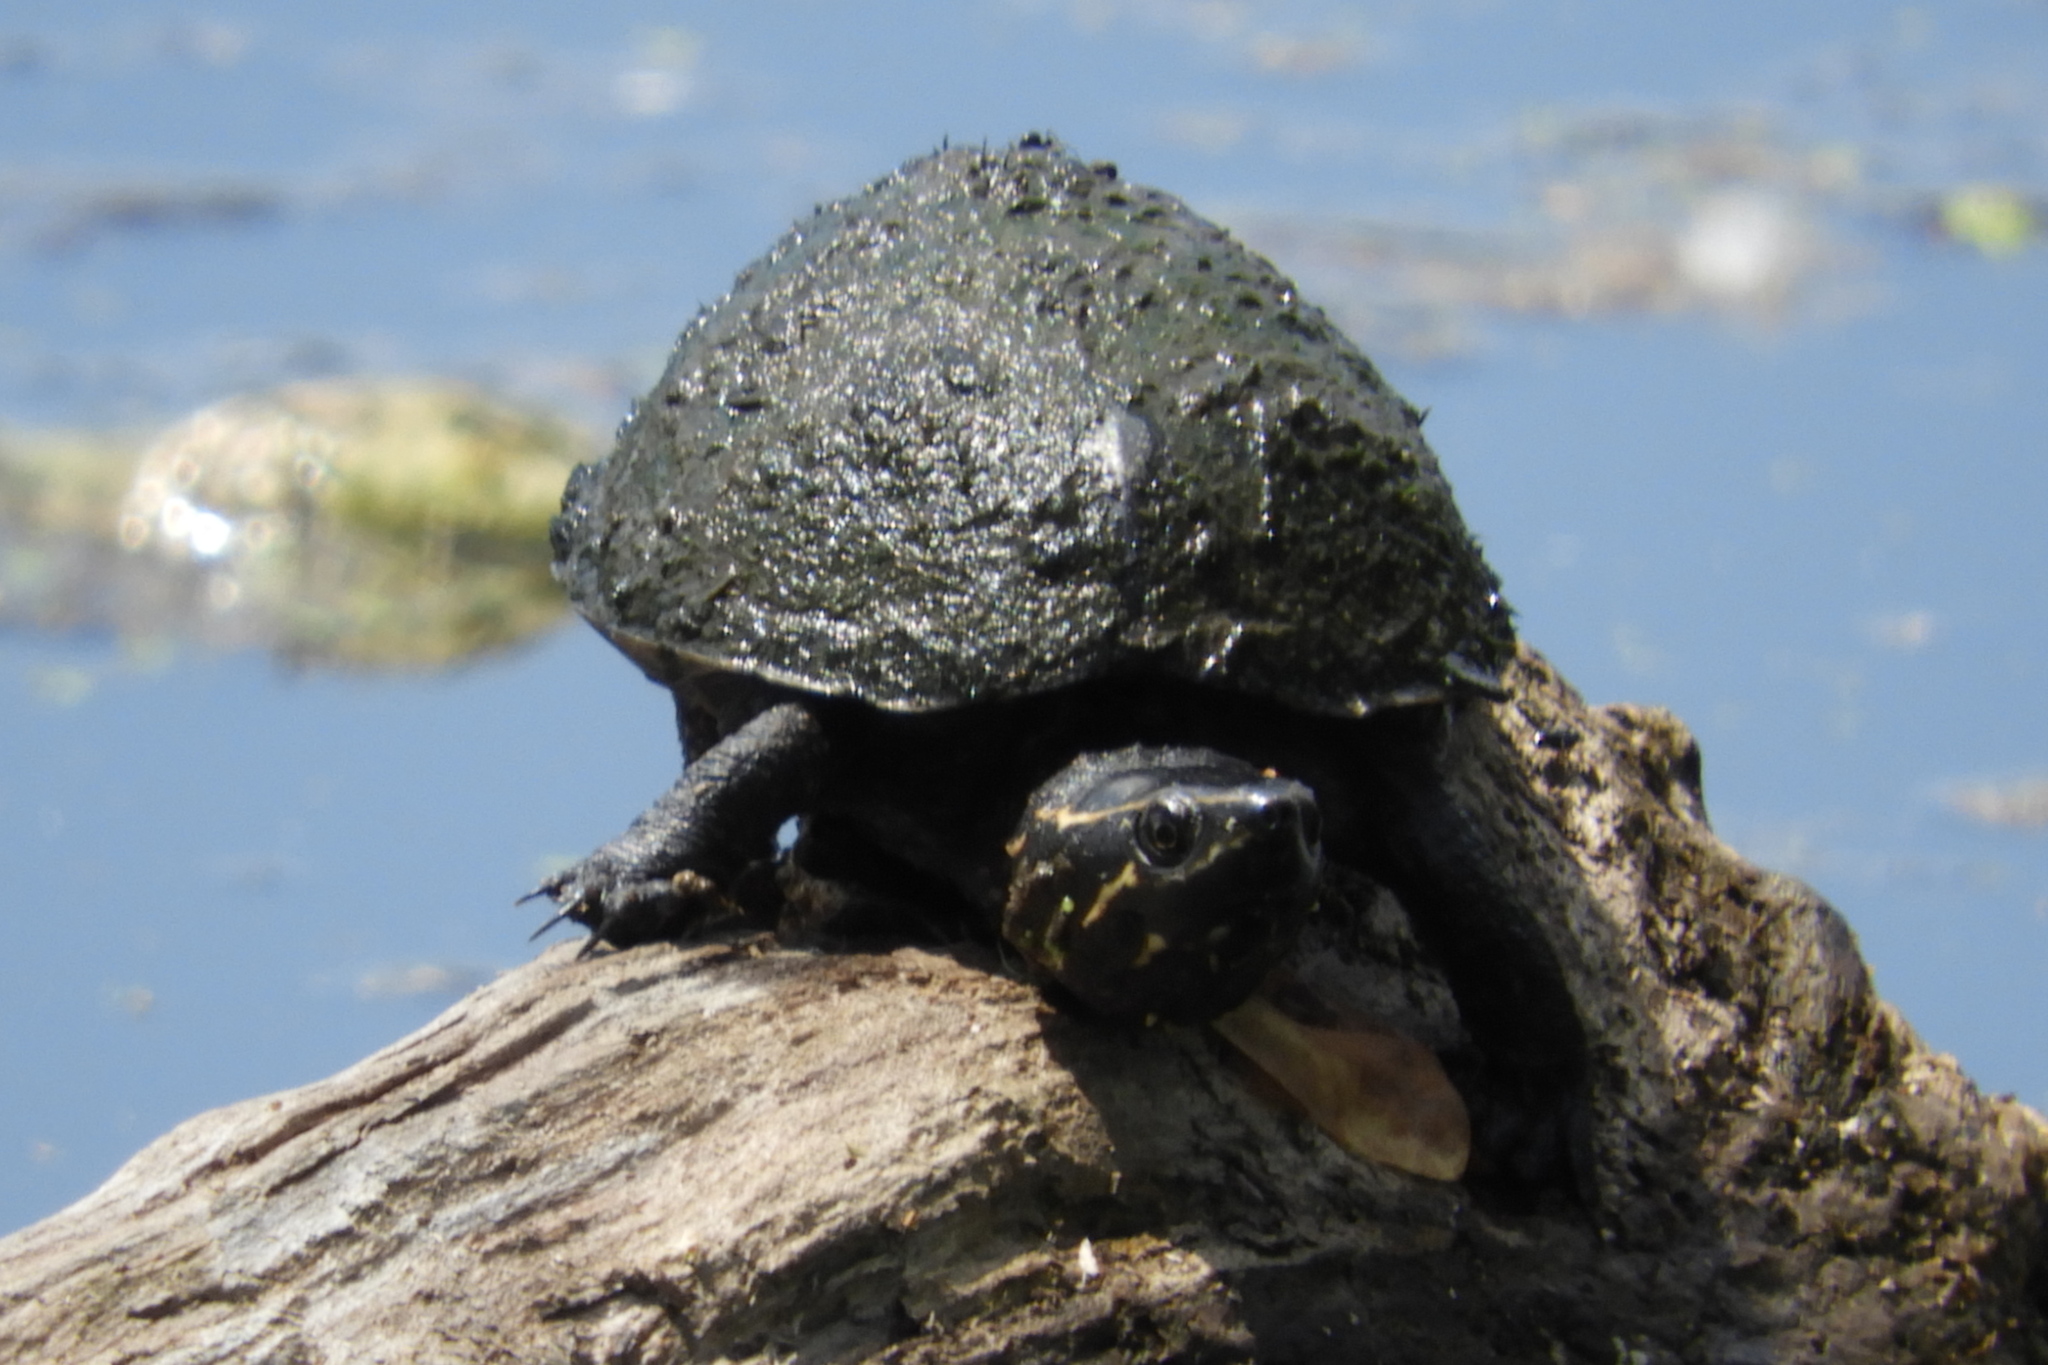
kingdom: Animalia
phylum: Chordata
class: Testudines
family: Kinosternidae
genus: Sternotherus
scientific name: Sternotherus odoratus
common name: Common musk turtle
